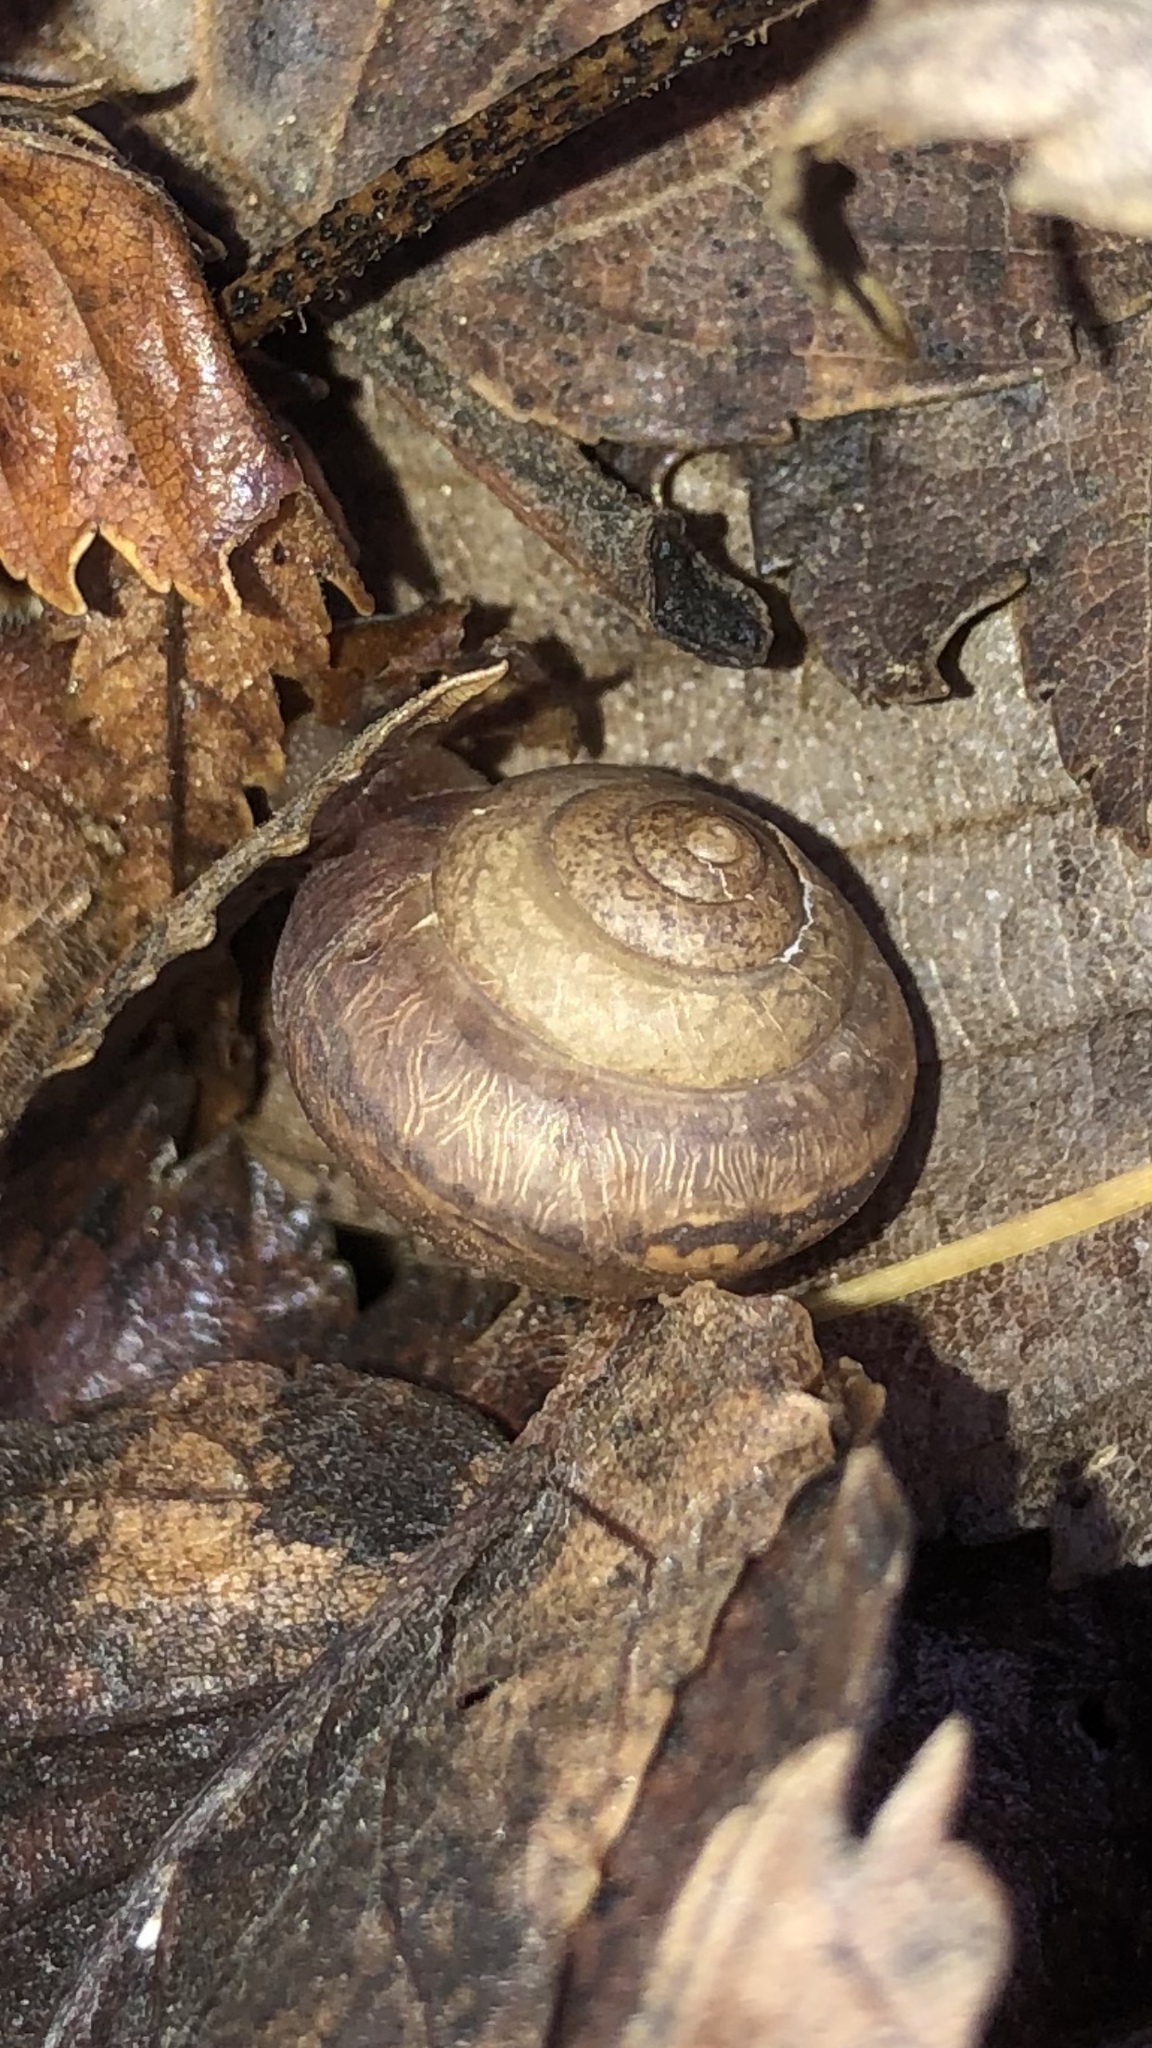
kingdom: Animalia
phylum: Mollusca
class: Gastropoda
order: Stylommatophora
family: Camaenidae
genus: Bradybaena
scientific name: Bradybaena similaris
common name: Asian trampsnail
